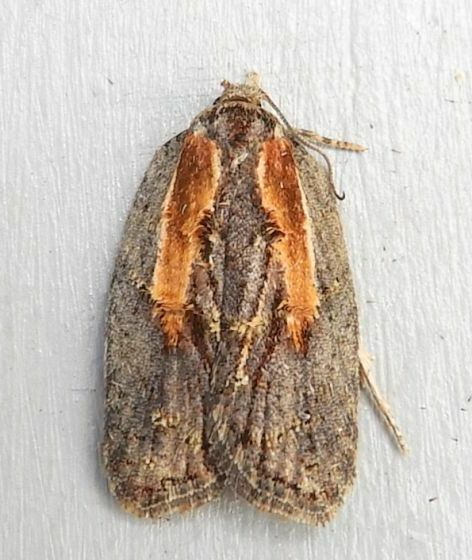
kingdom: Animalia
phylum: Arthropoda
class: Insecta
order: Lepidoptera
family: Tortricidae
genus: Acleris
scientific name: Acleris youngana
